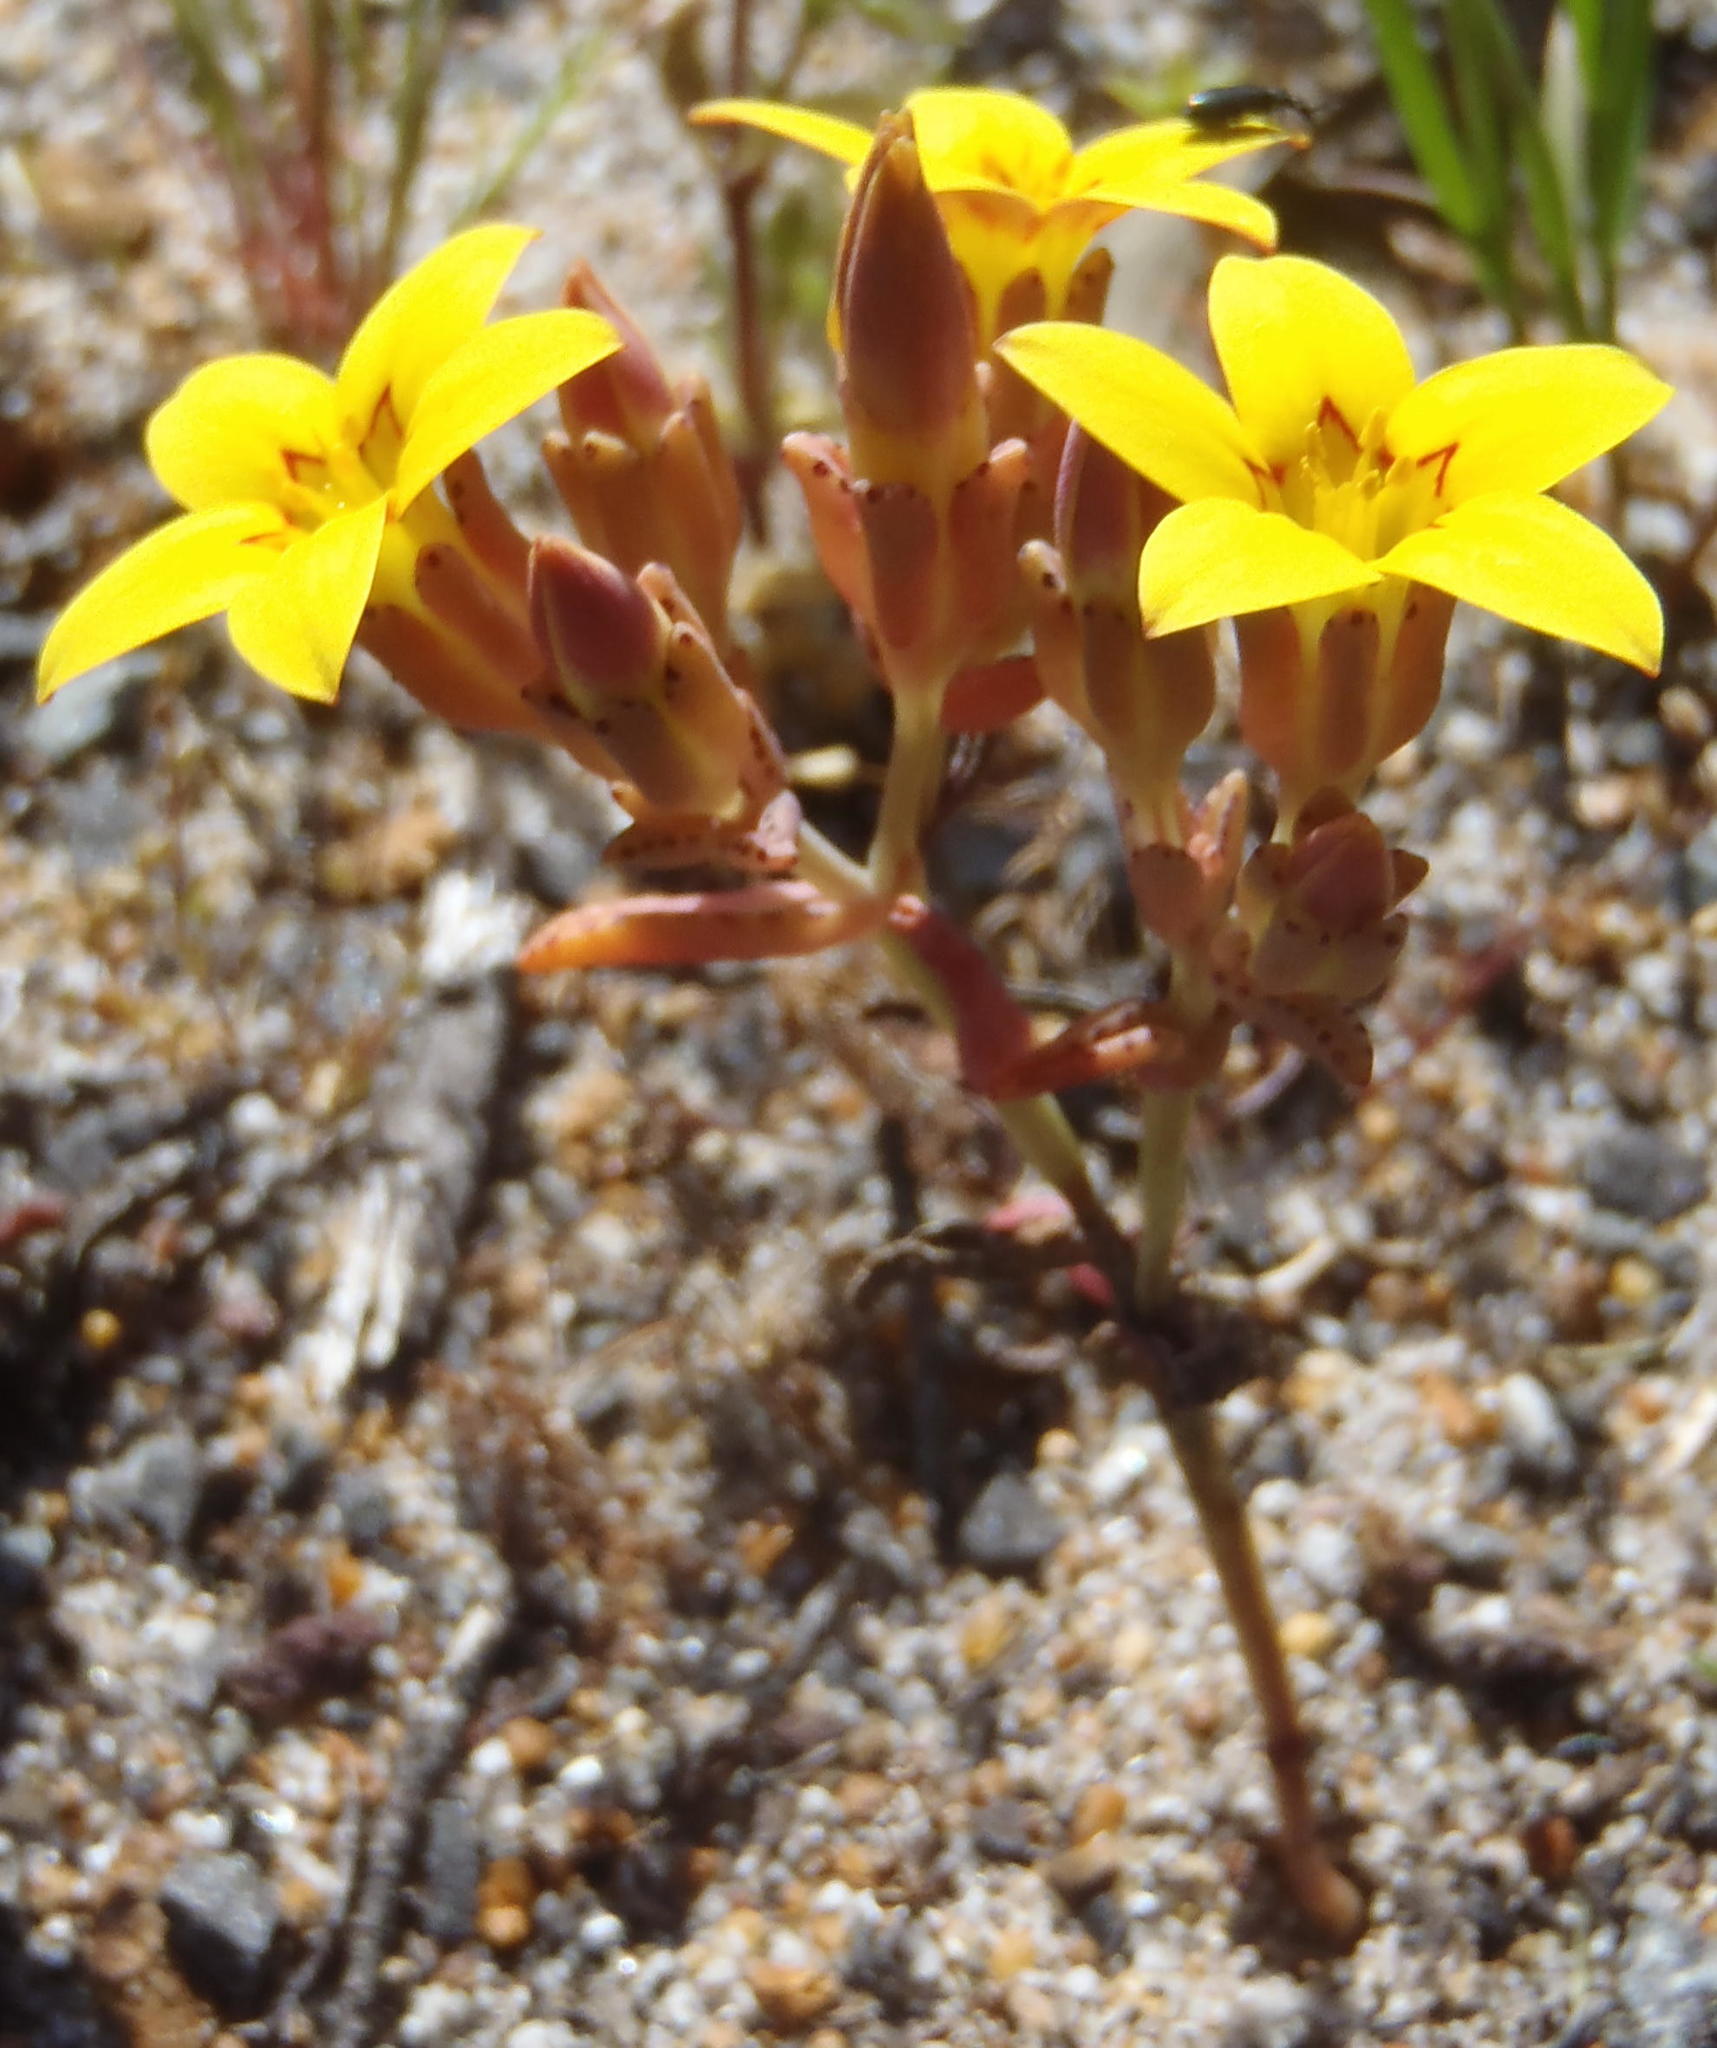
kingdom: Plantae
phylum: Tracheophyta
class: Magnoliopsida
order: Saxifragales
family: Crassulaceae
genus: Crassula
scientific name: Crassula dichotoma
